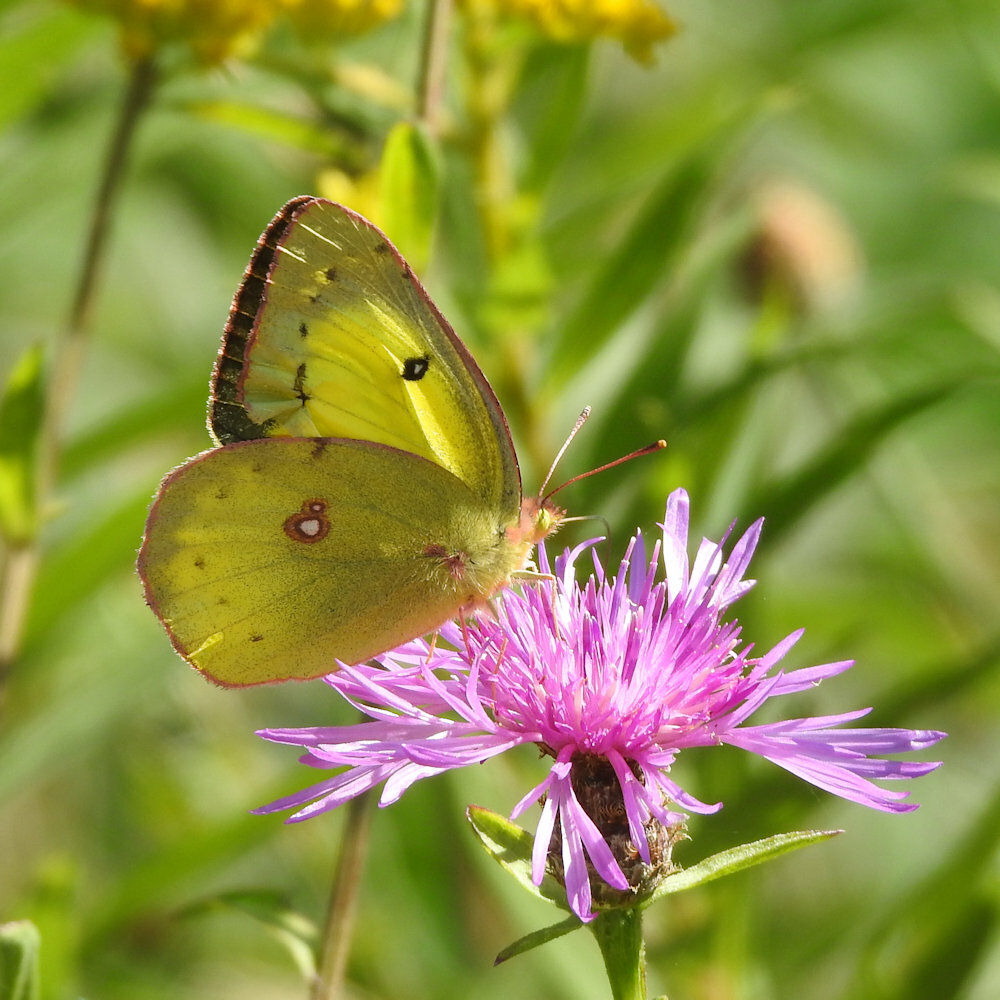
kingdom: Animalia
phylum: Arthropoda
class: Insecta
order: Lepidoptera
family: Pieridae
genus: Colias
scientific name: Colias philodice
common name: Clouded sulphur
